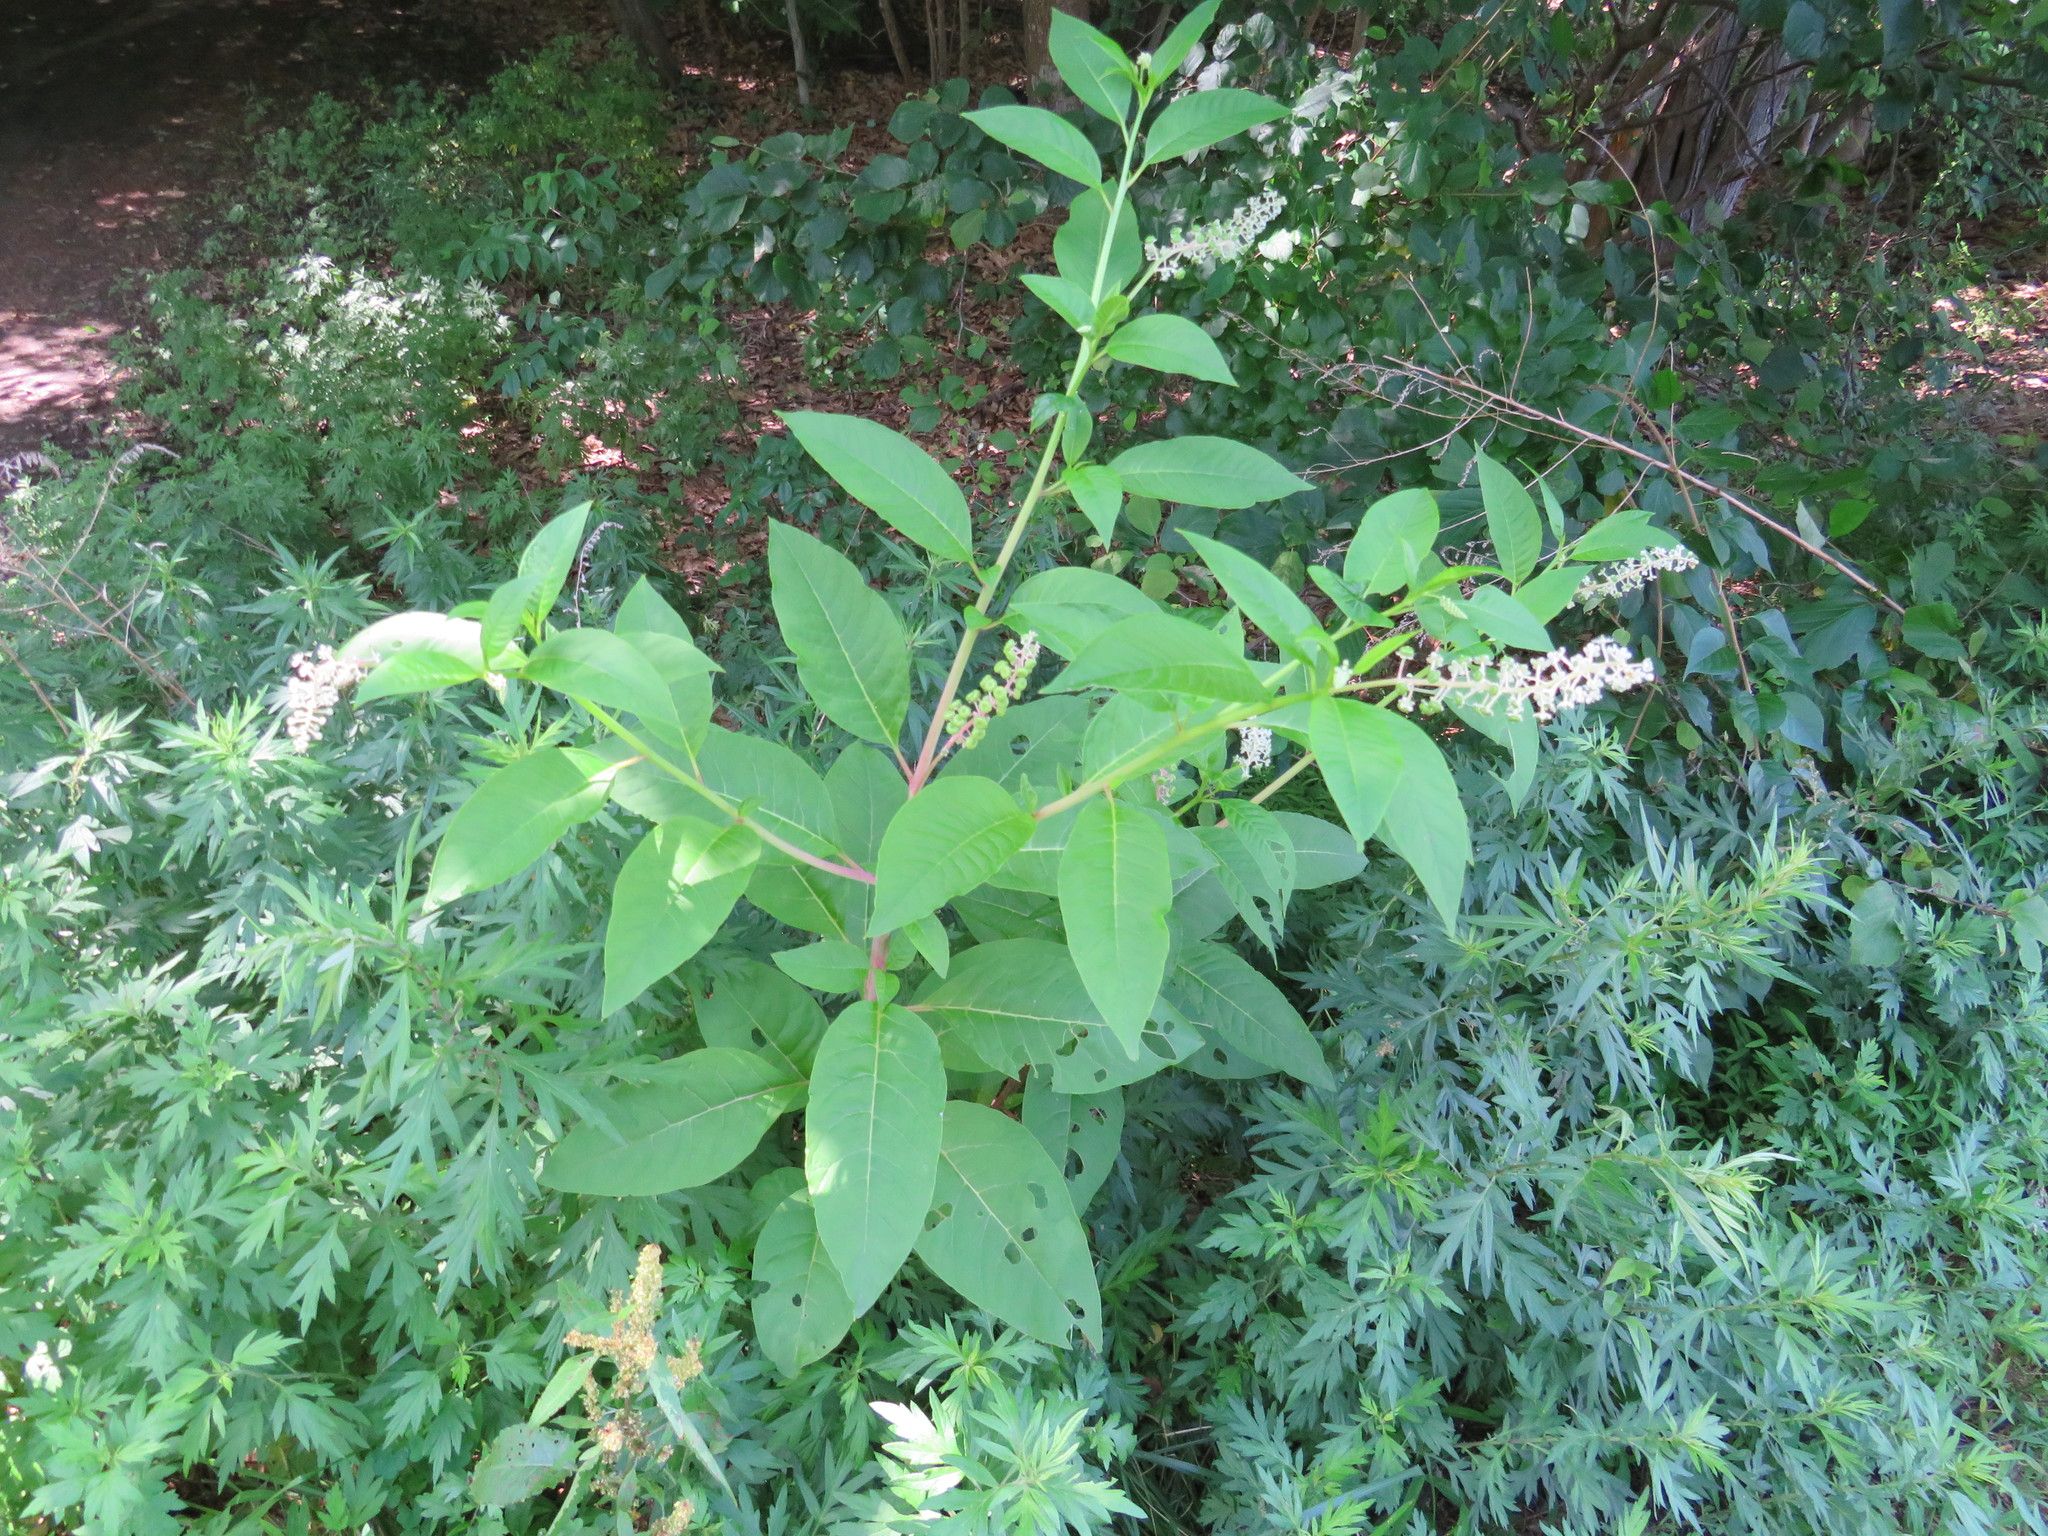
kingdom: Plantae
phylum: Tracheophyta
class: Magnoliopsida
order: Caryophyllales
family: Phytolaccaceae
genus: Phytolacca
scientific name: Phytolacca americana
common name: American pokeweed
